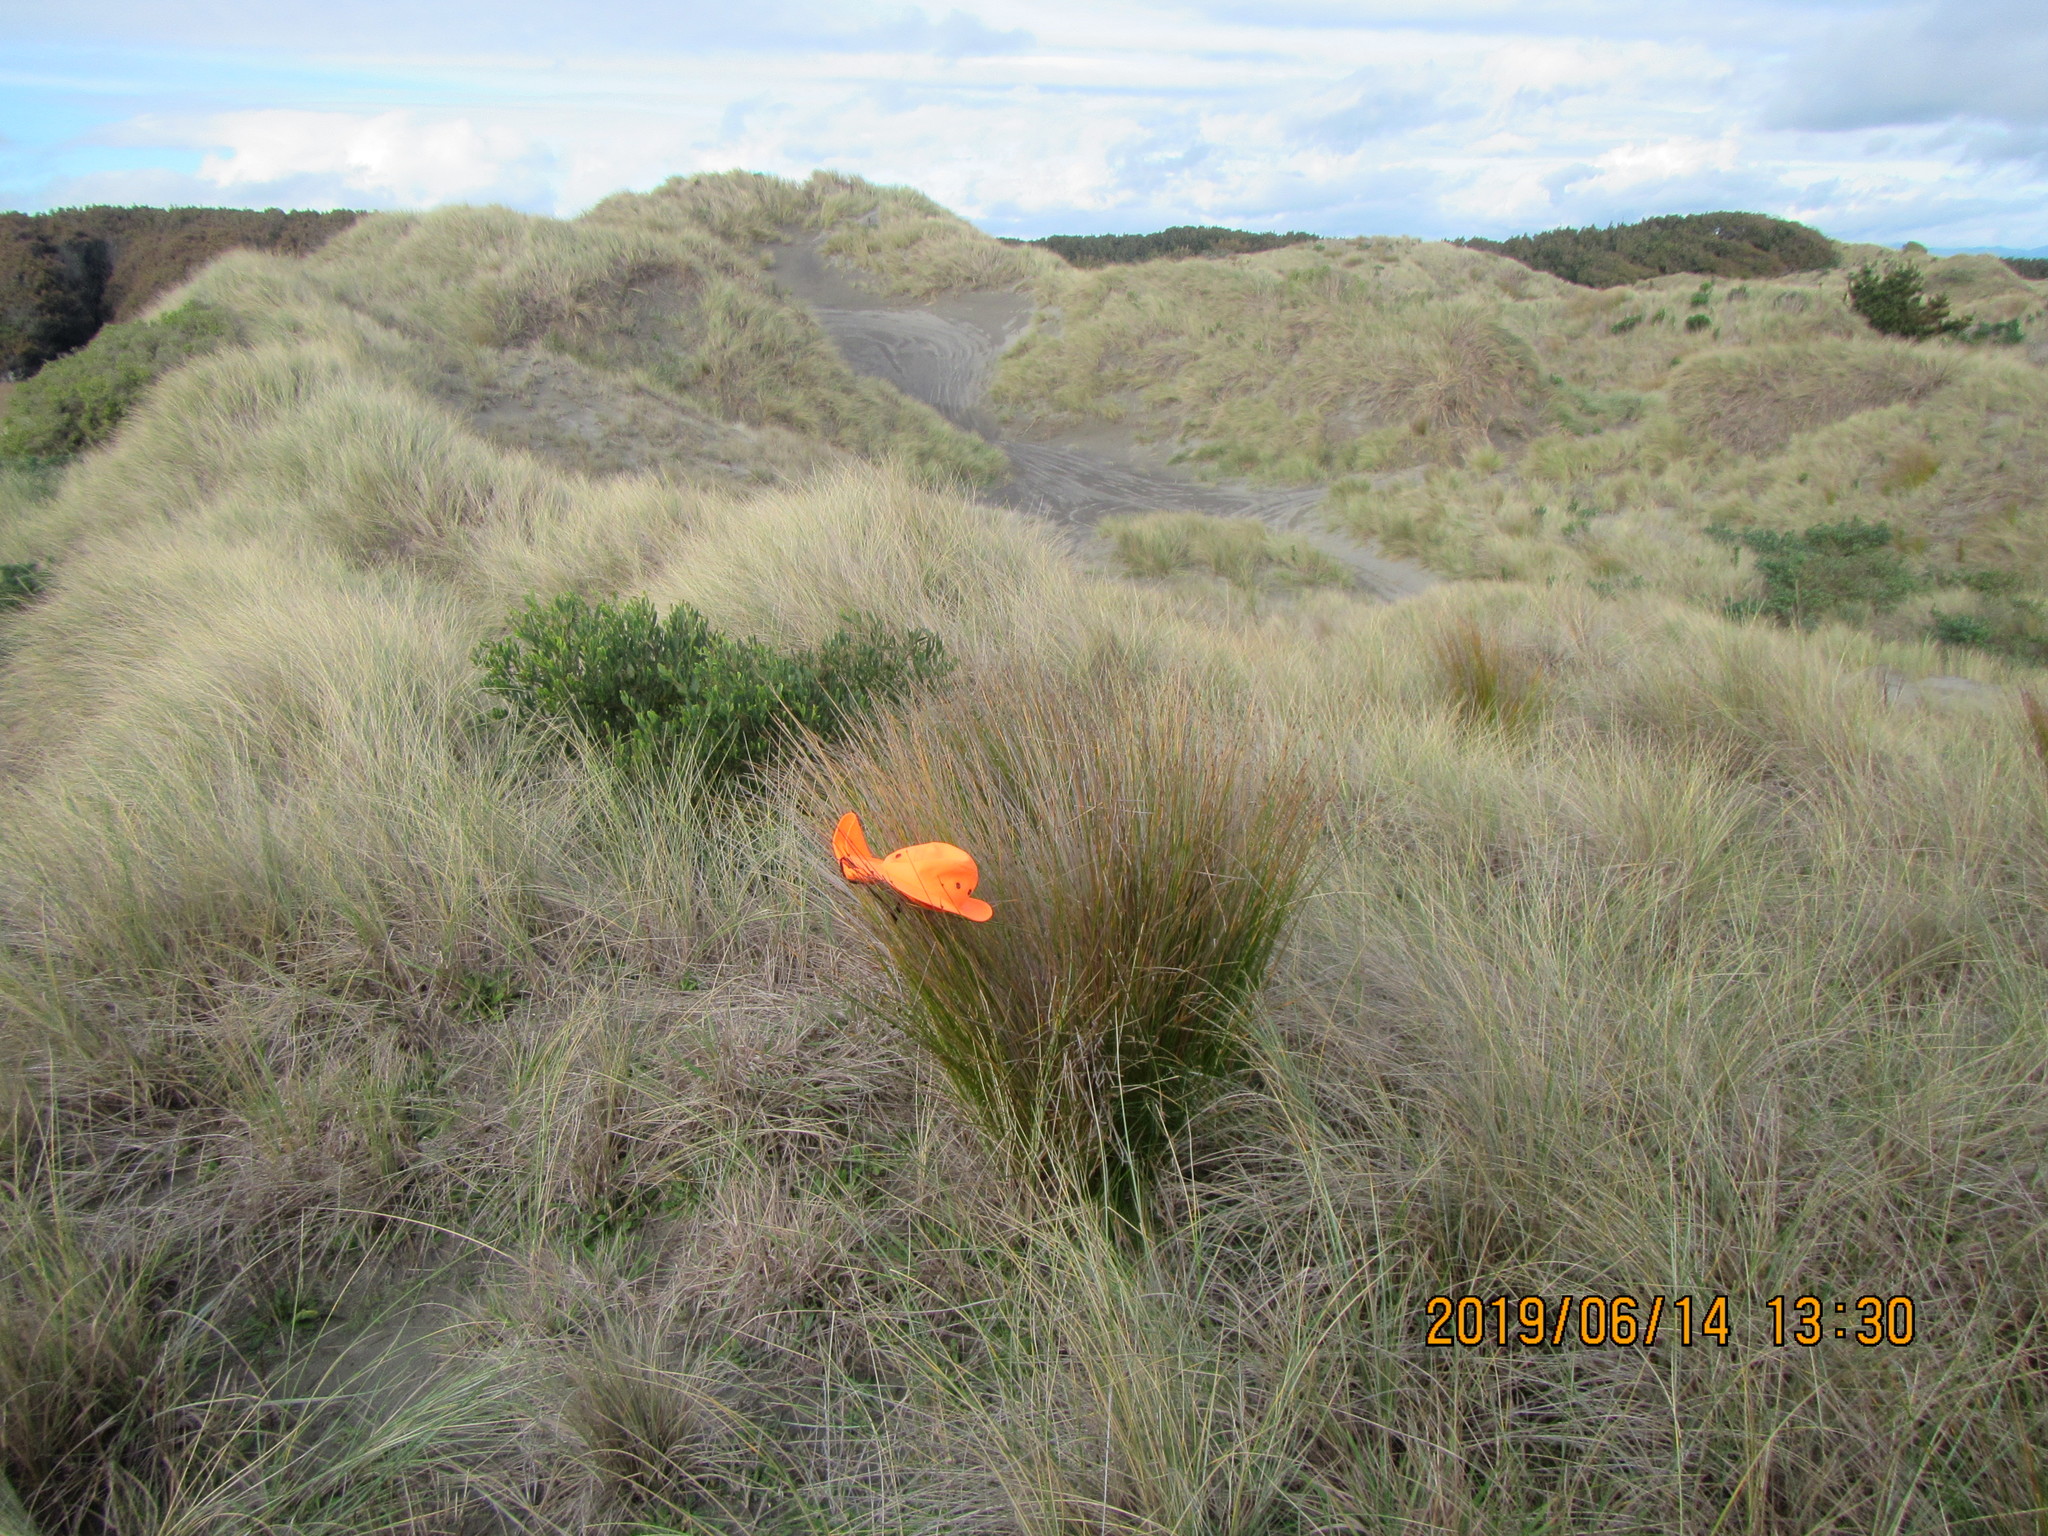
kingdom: Plantae
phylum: Tracheophyta
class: Liliopsida
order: Poales
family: Cyperaceae
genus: Ficinia
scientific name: Ficinia nodosa
